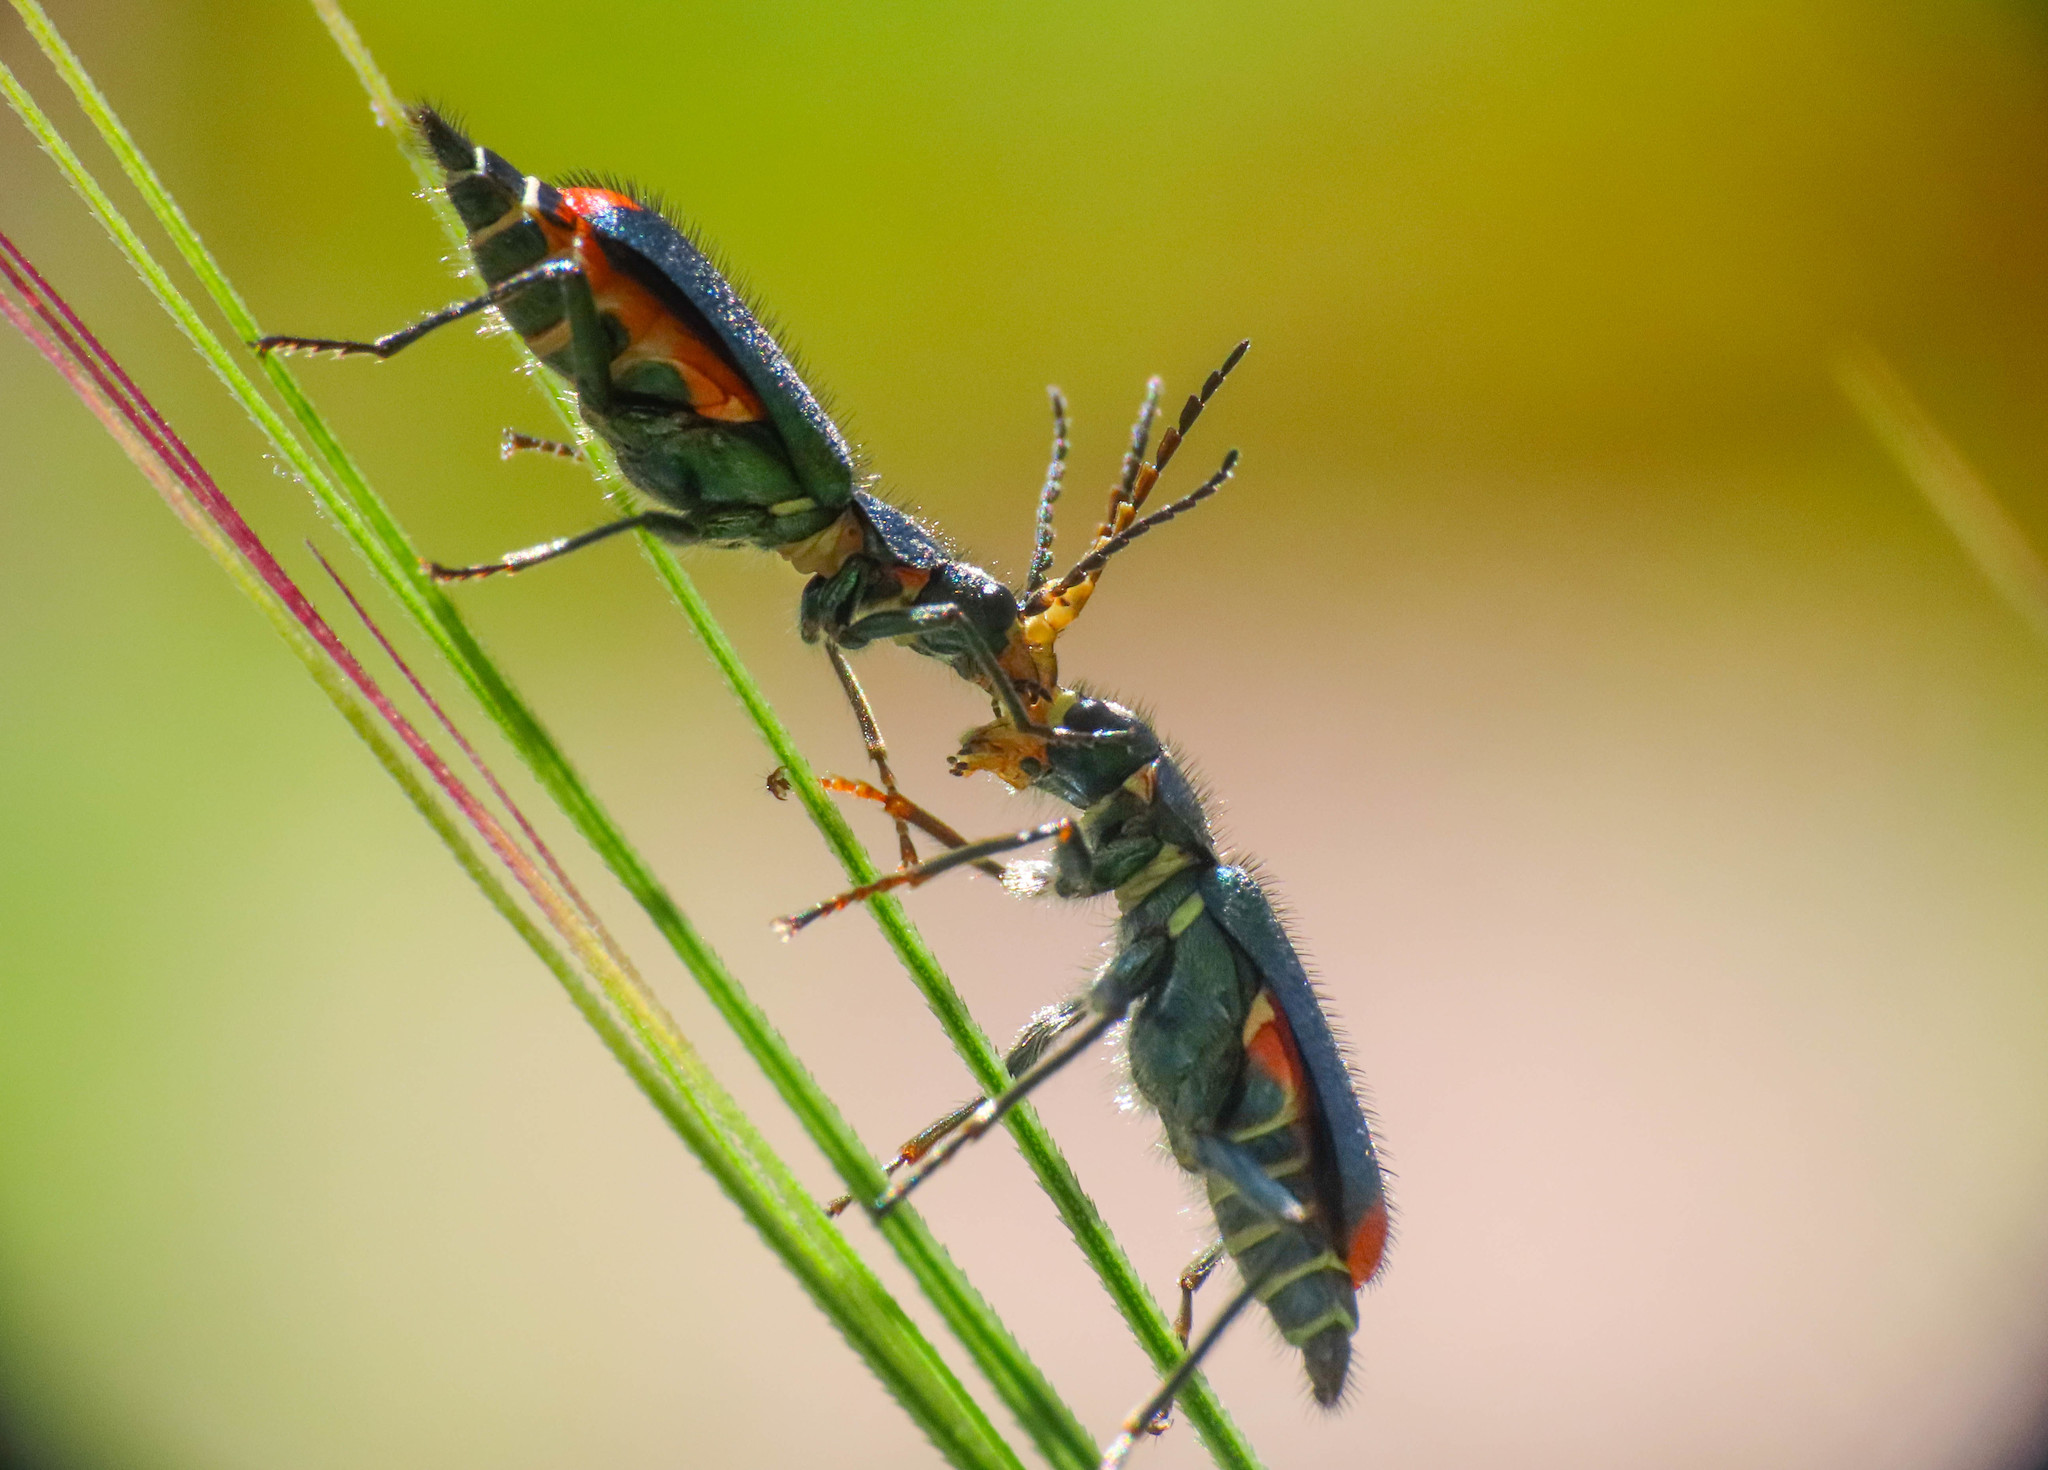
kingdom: Animalia
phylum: Arthropoda
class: Insecta
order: Coleoptera
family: Melyridae
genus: Malachius
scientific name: Malachius australis
